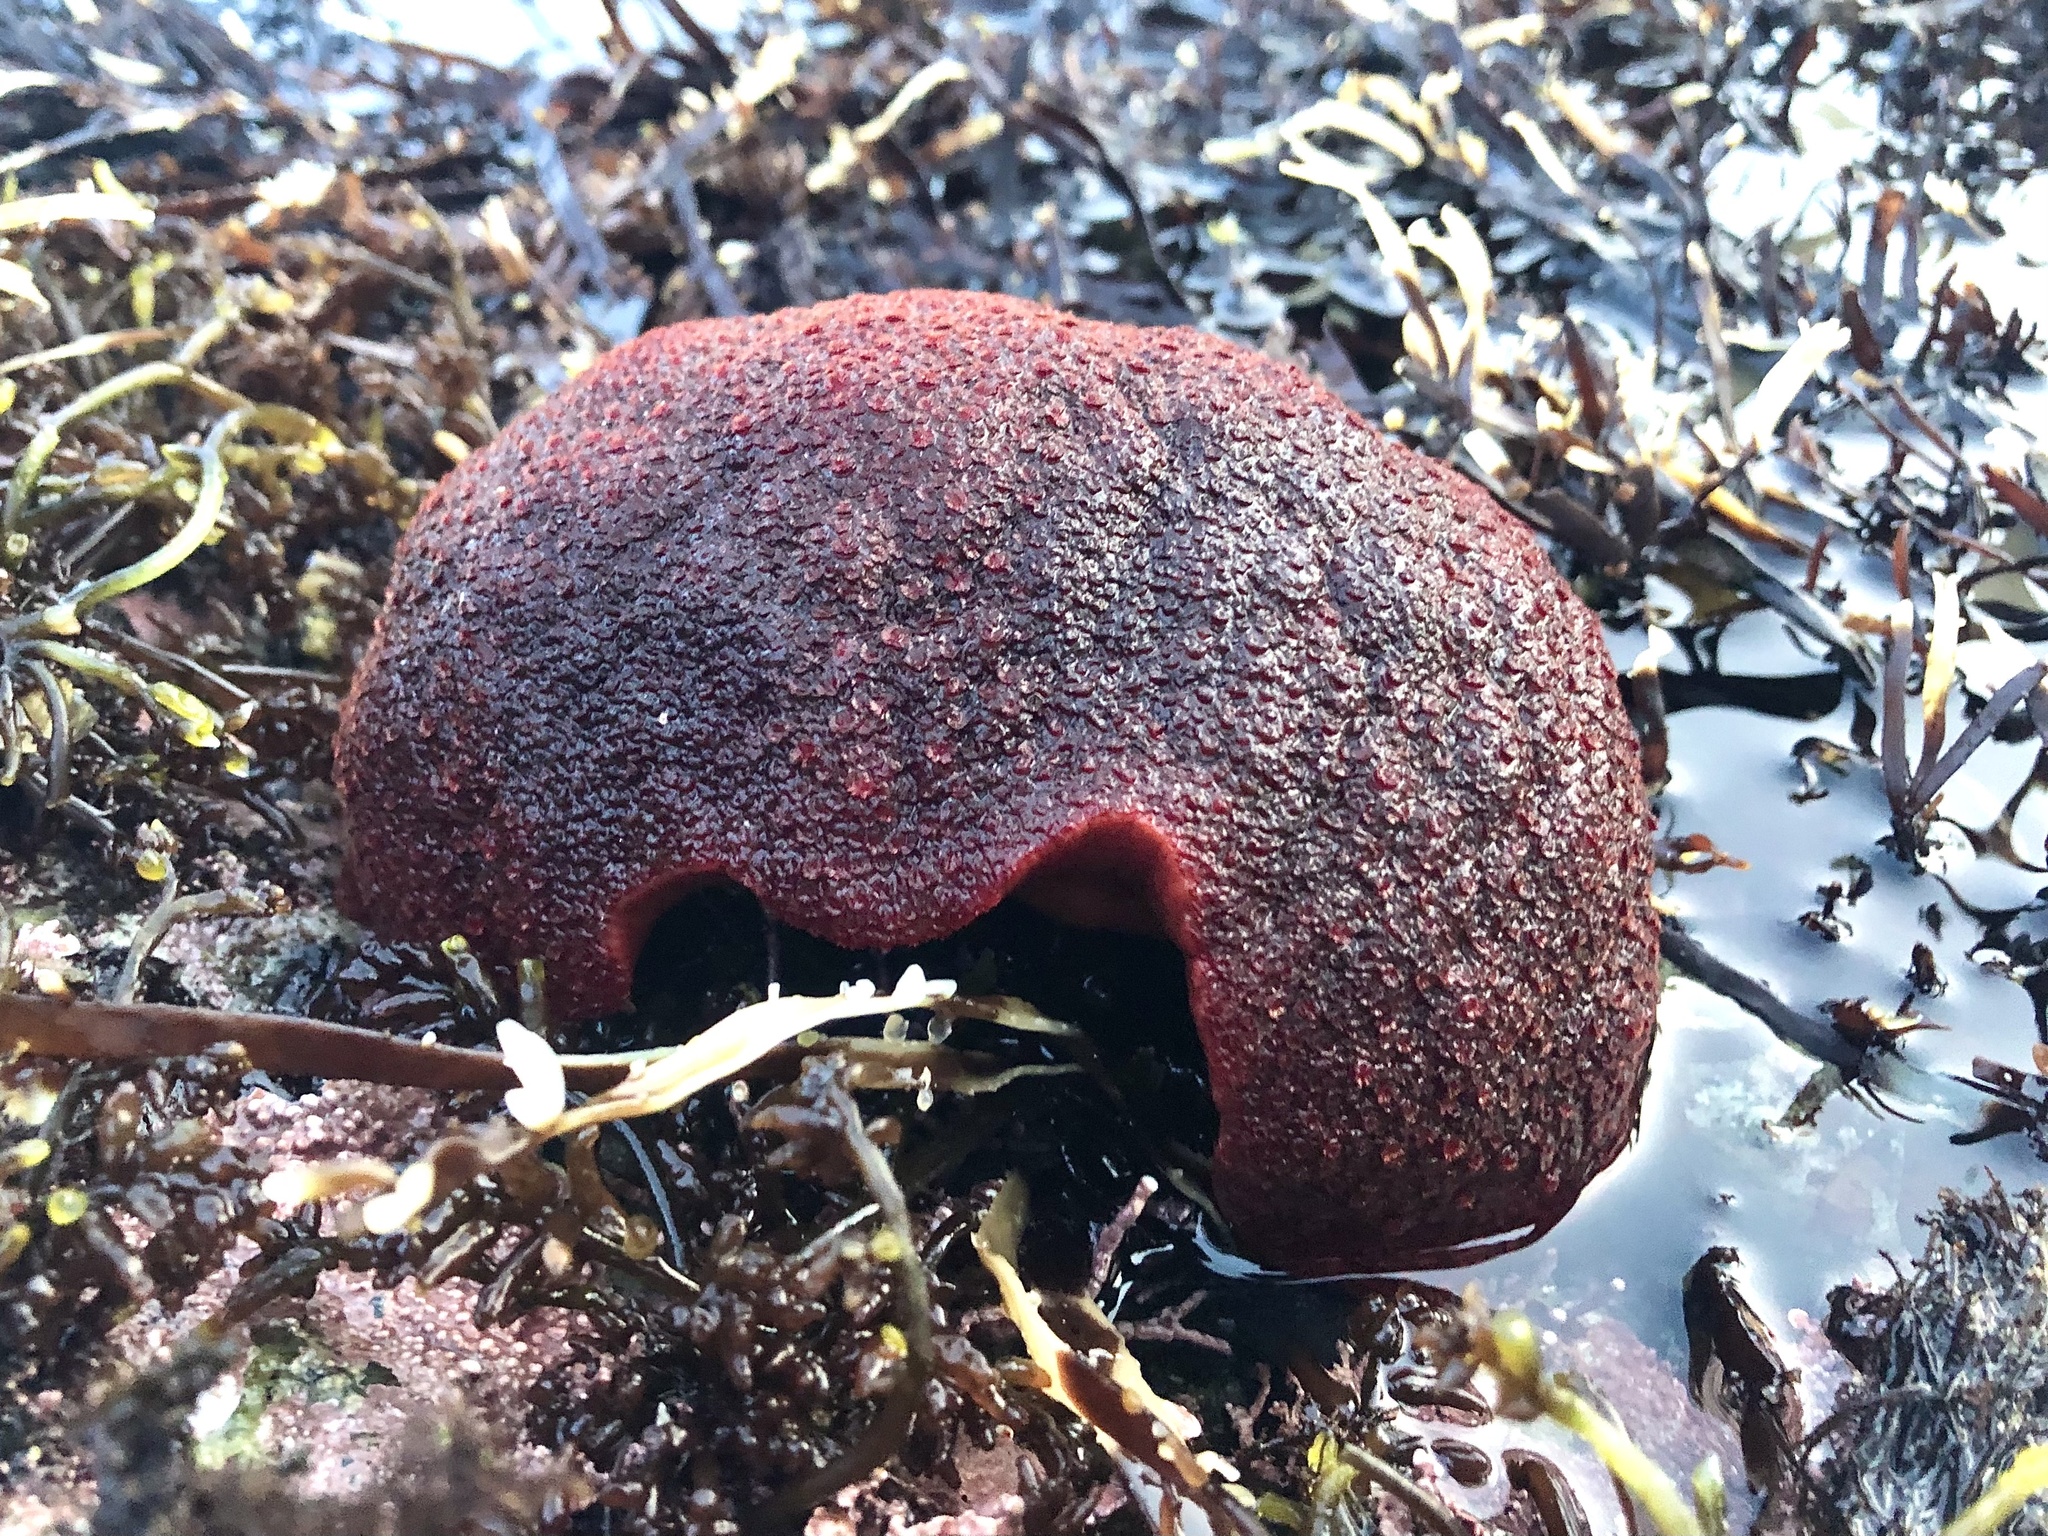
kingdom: Animalia
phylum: Mollusca
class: Polyplacophora
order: Chitonida
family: Acanthochitonidae
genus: Cryptochiton
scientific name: Cryptochiton stelleri
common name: Giant pacific chiton
